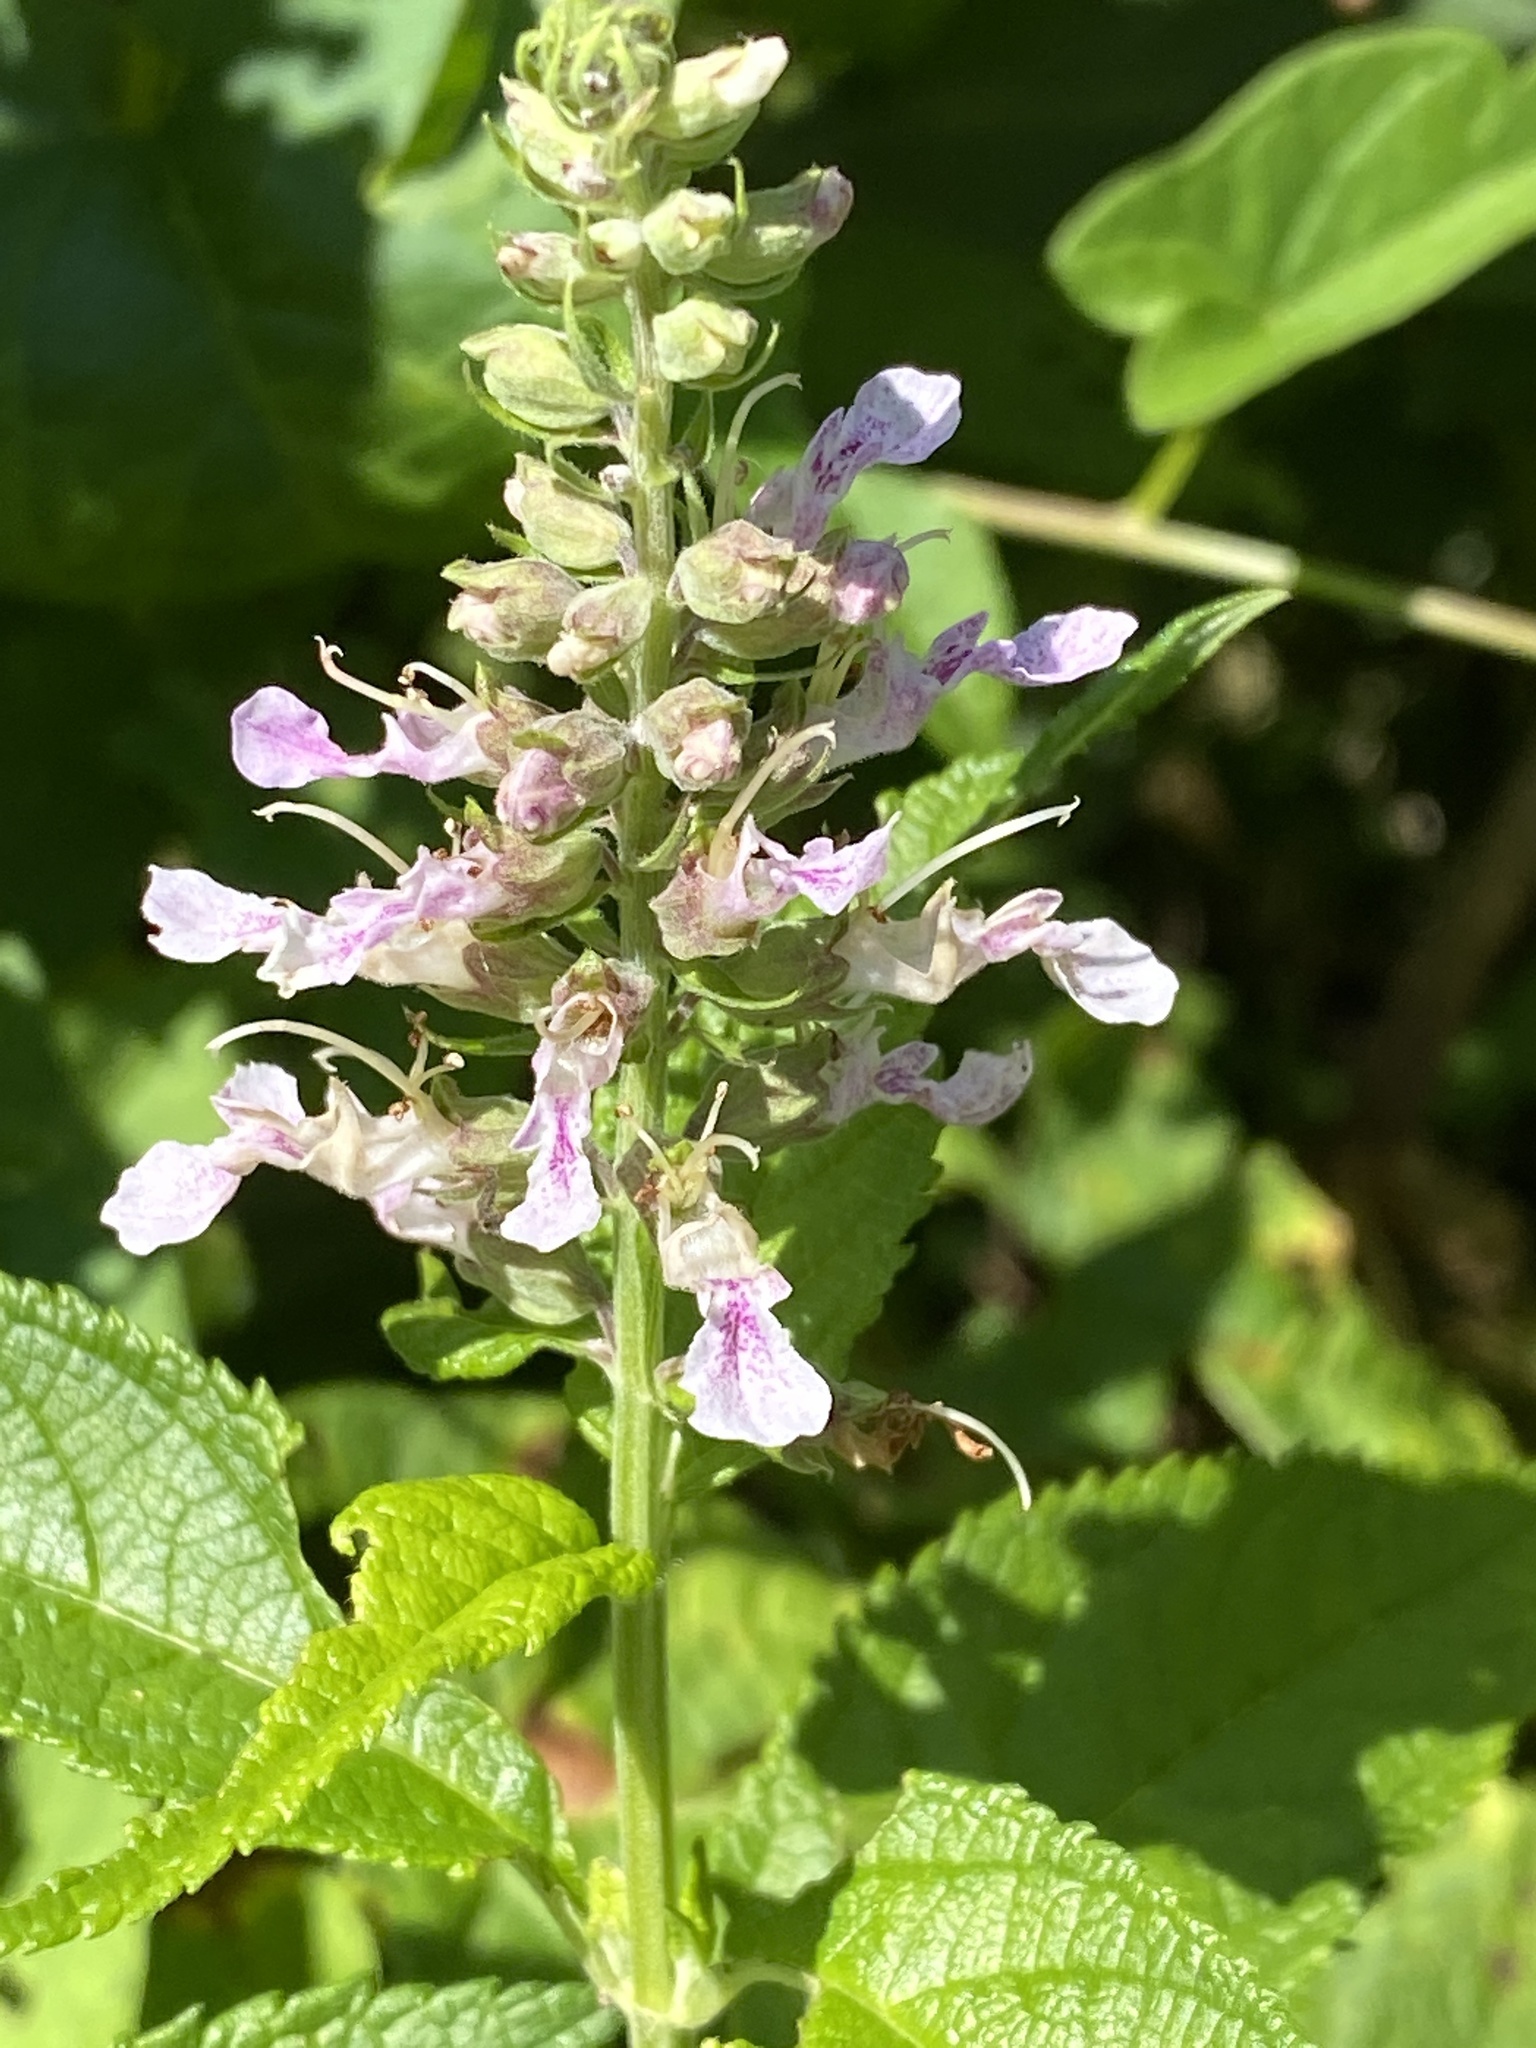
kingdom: Plantae
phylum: Tracheophyta
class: Magnoliopsida
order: Lamiales
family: Lamiaceae
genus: Teucrium
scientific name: Teucrium canadense
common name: American germander
